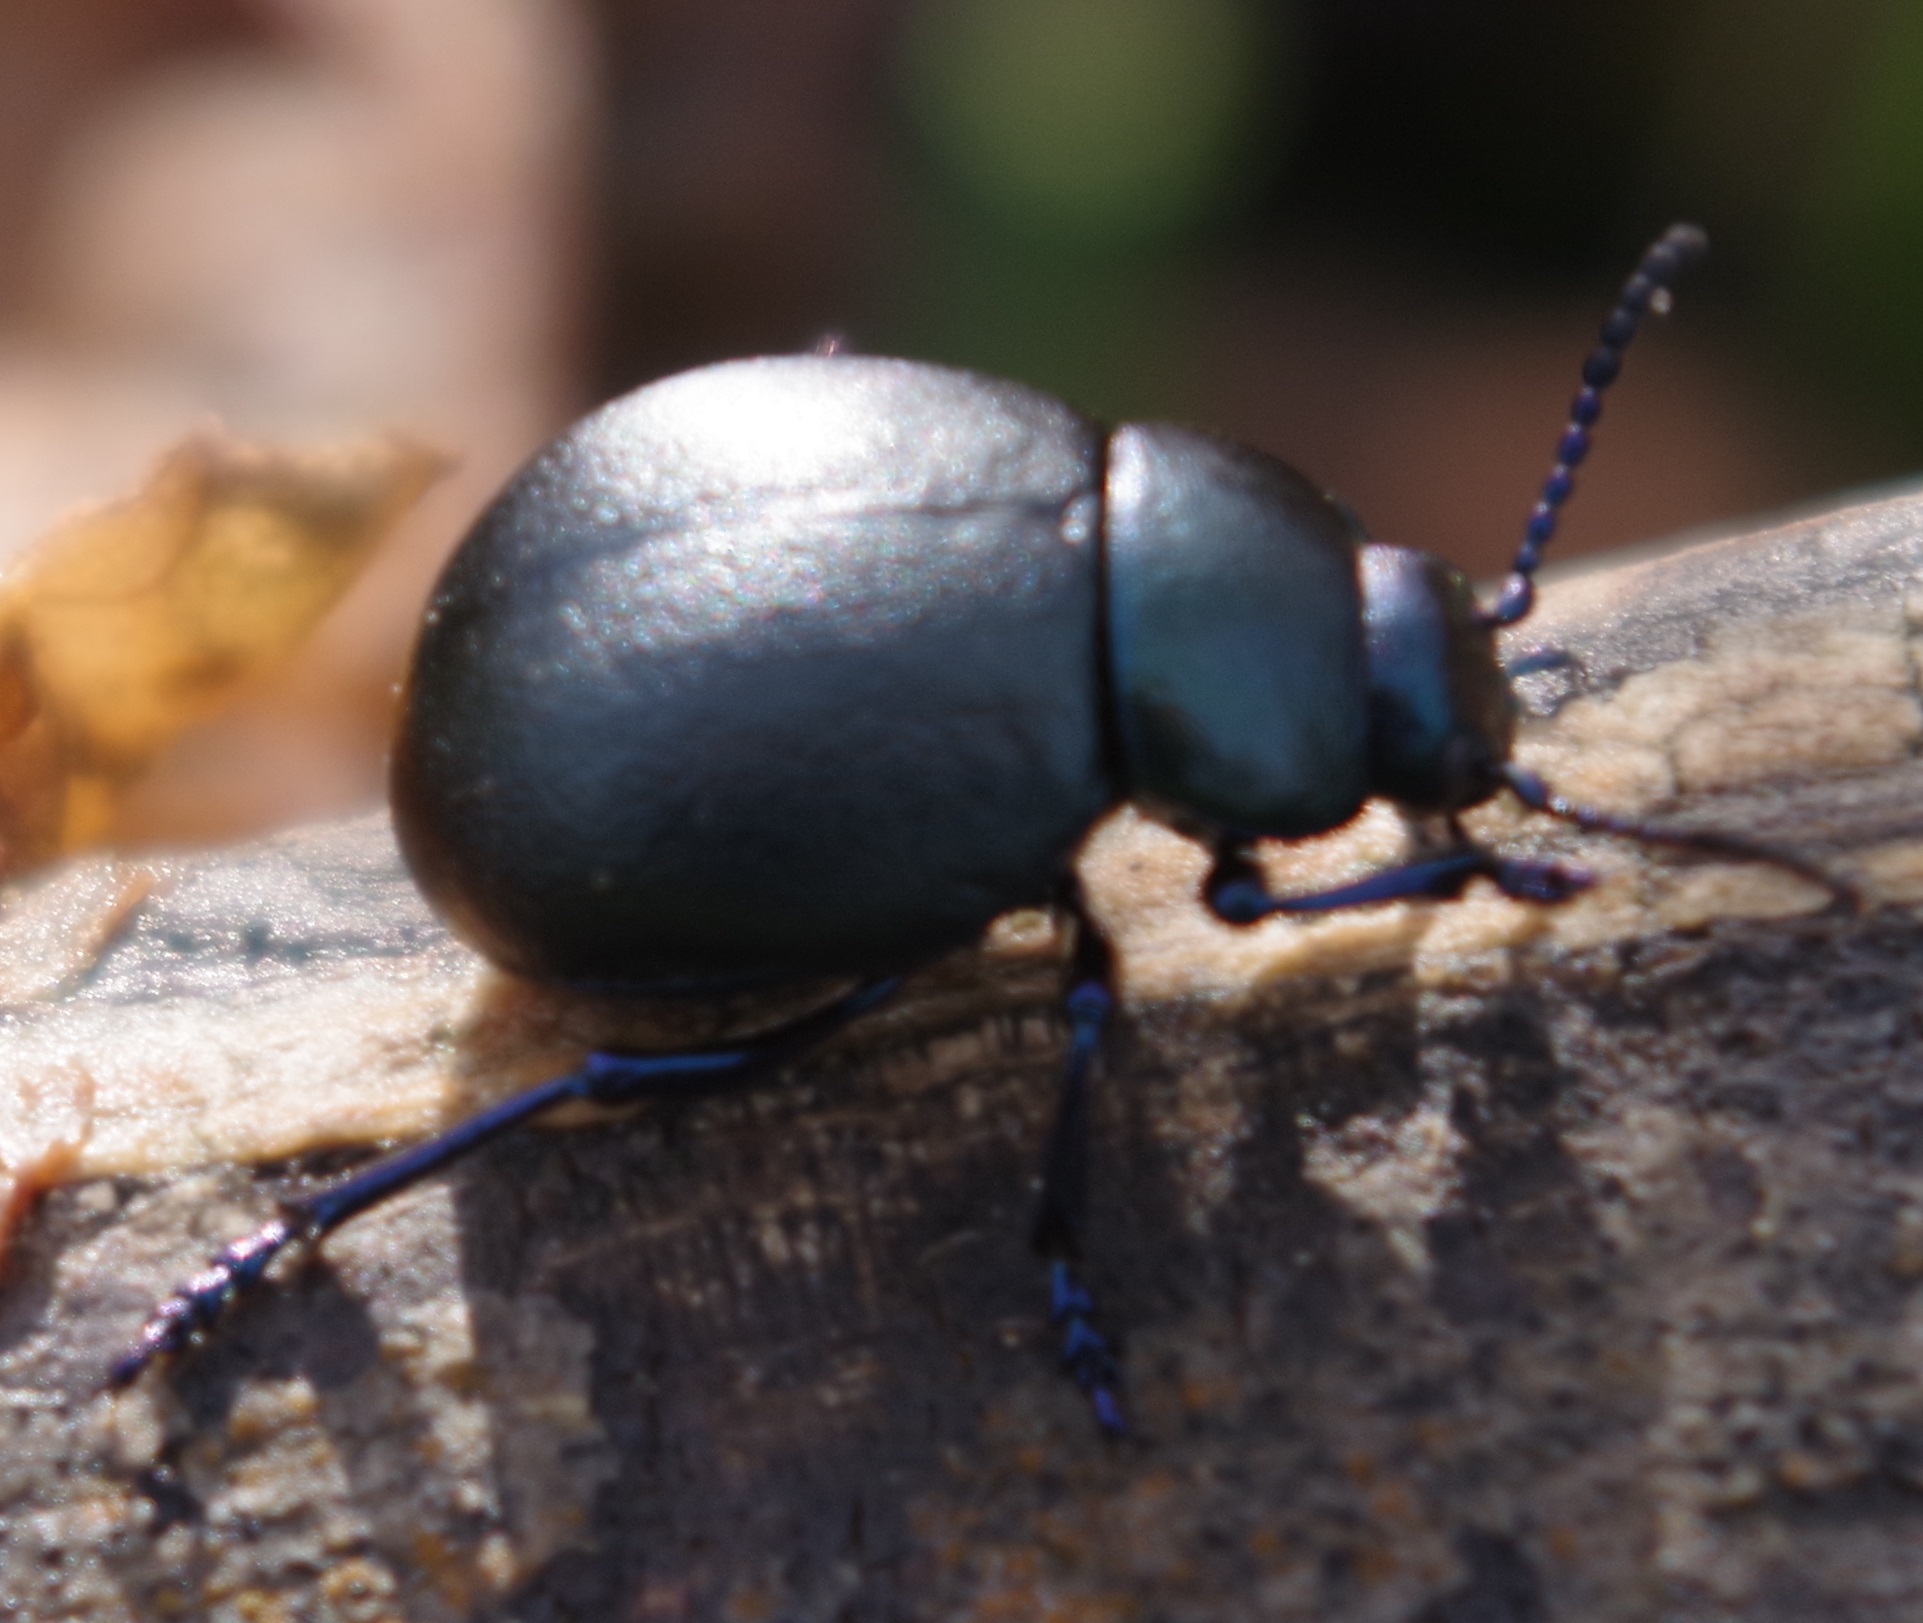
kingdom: Animalia
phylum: Arthropoda
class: Insecta
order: Coleoptera
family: Chrysomelidae
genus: Timarcha
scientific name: Timarcha goettingensis
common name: Small bloody-nosed beetle
